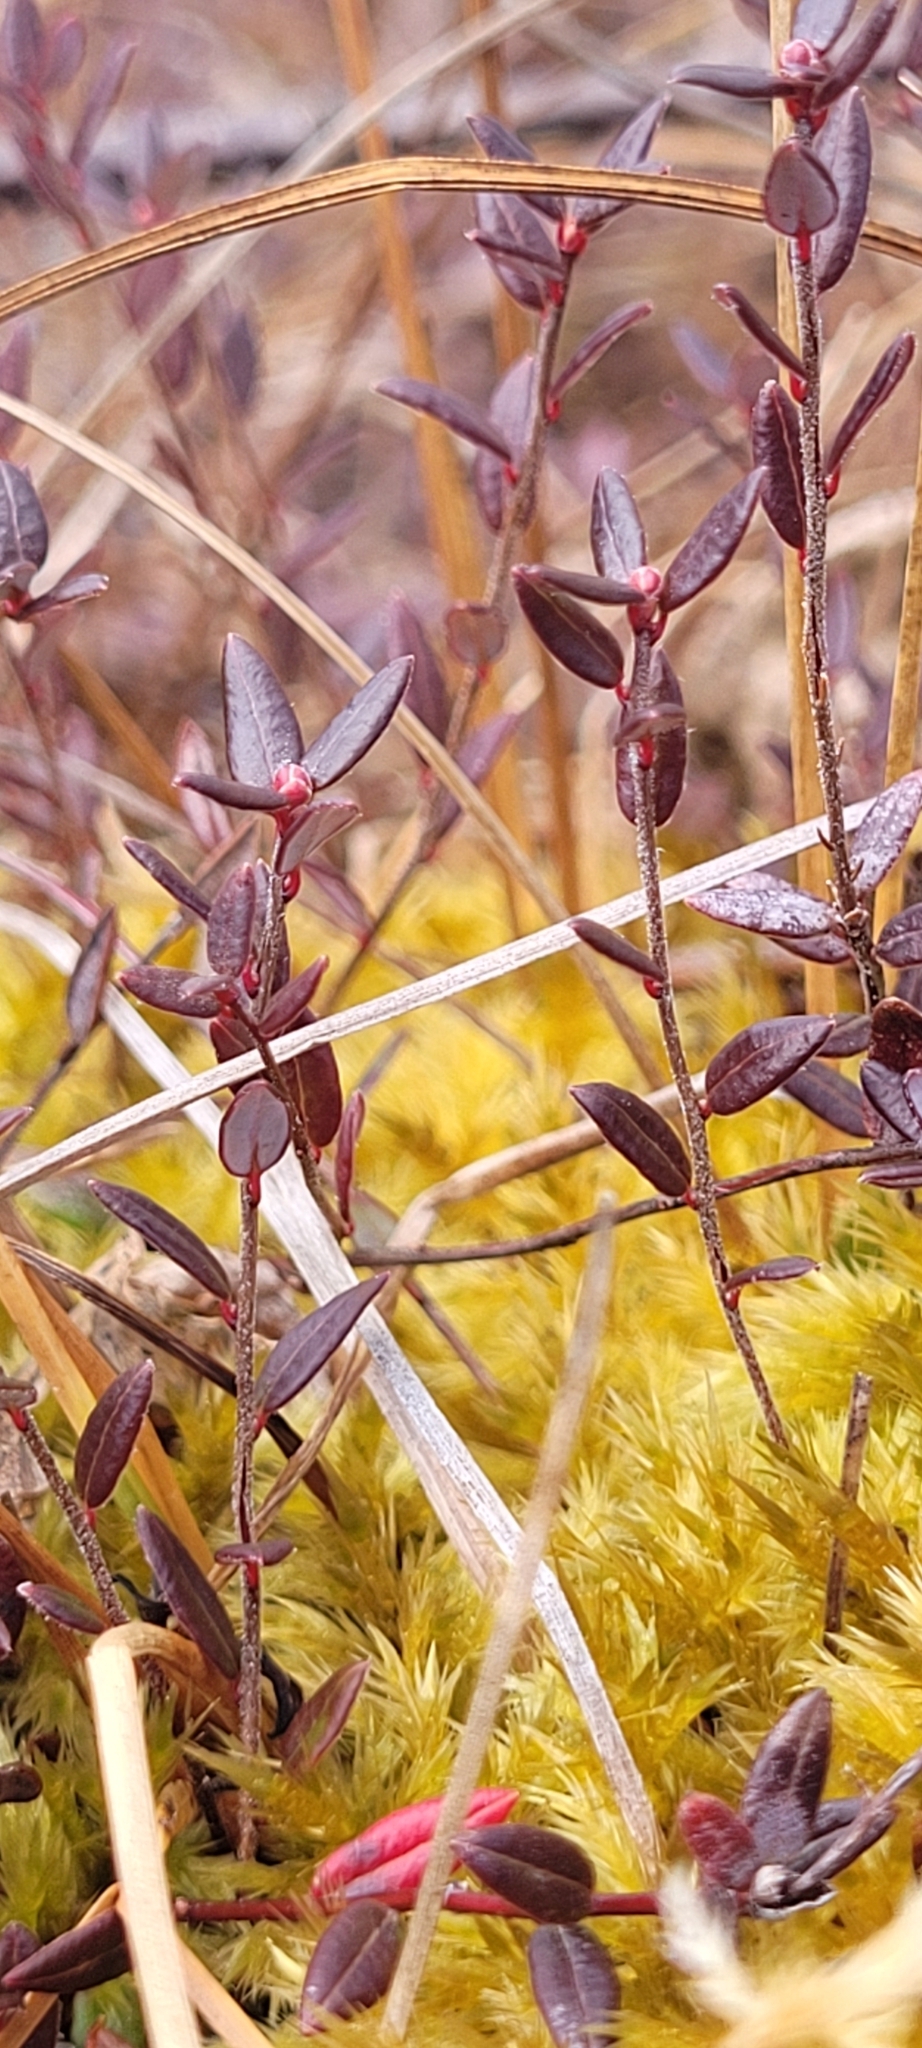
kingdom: Plantae
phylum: Tracheophyta
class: Magnoliopsida
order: Ericales
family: Ericaceae
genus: Vaccinium
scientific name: Vaccinium oxycoccos
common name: Cranberry
